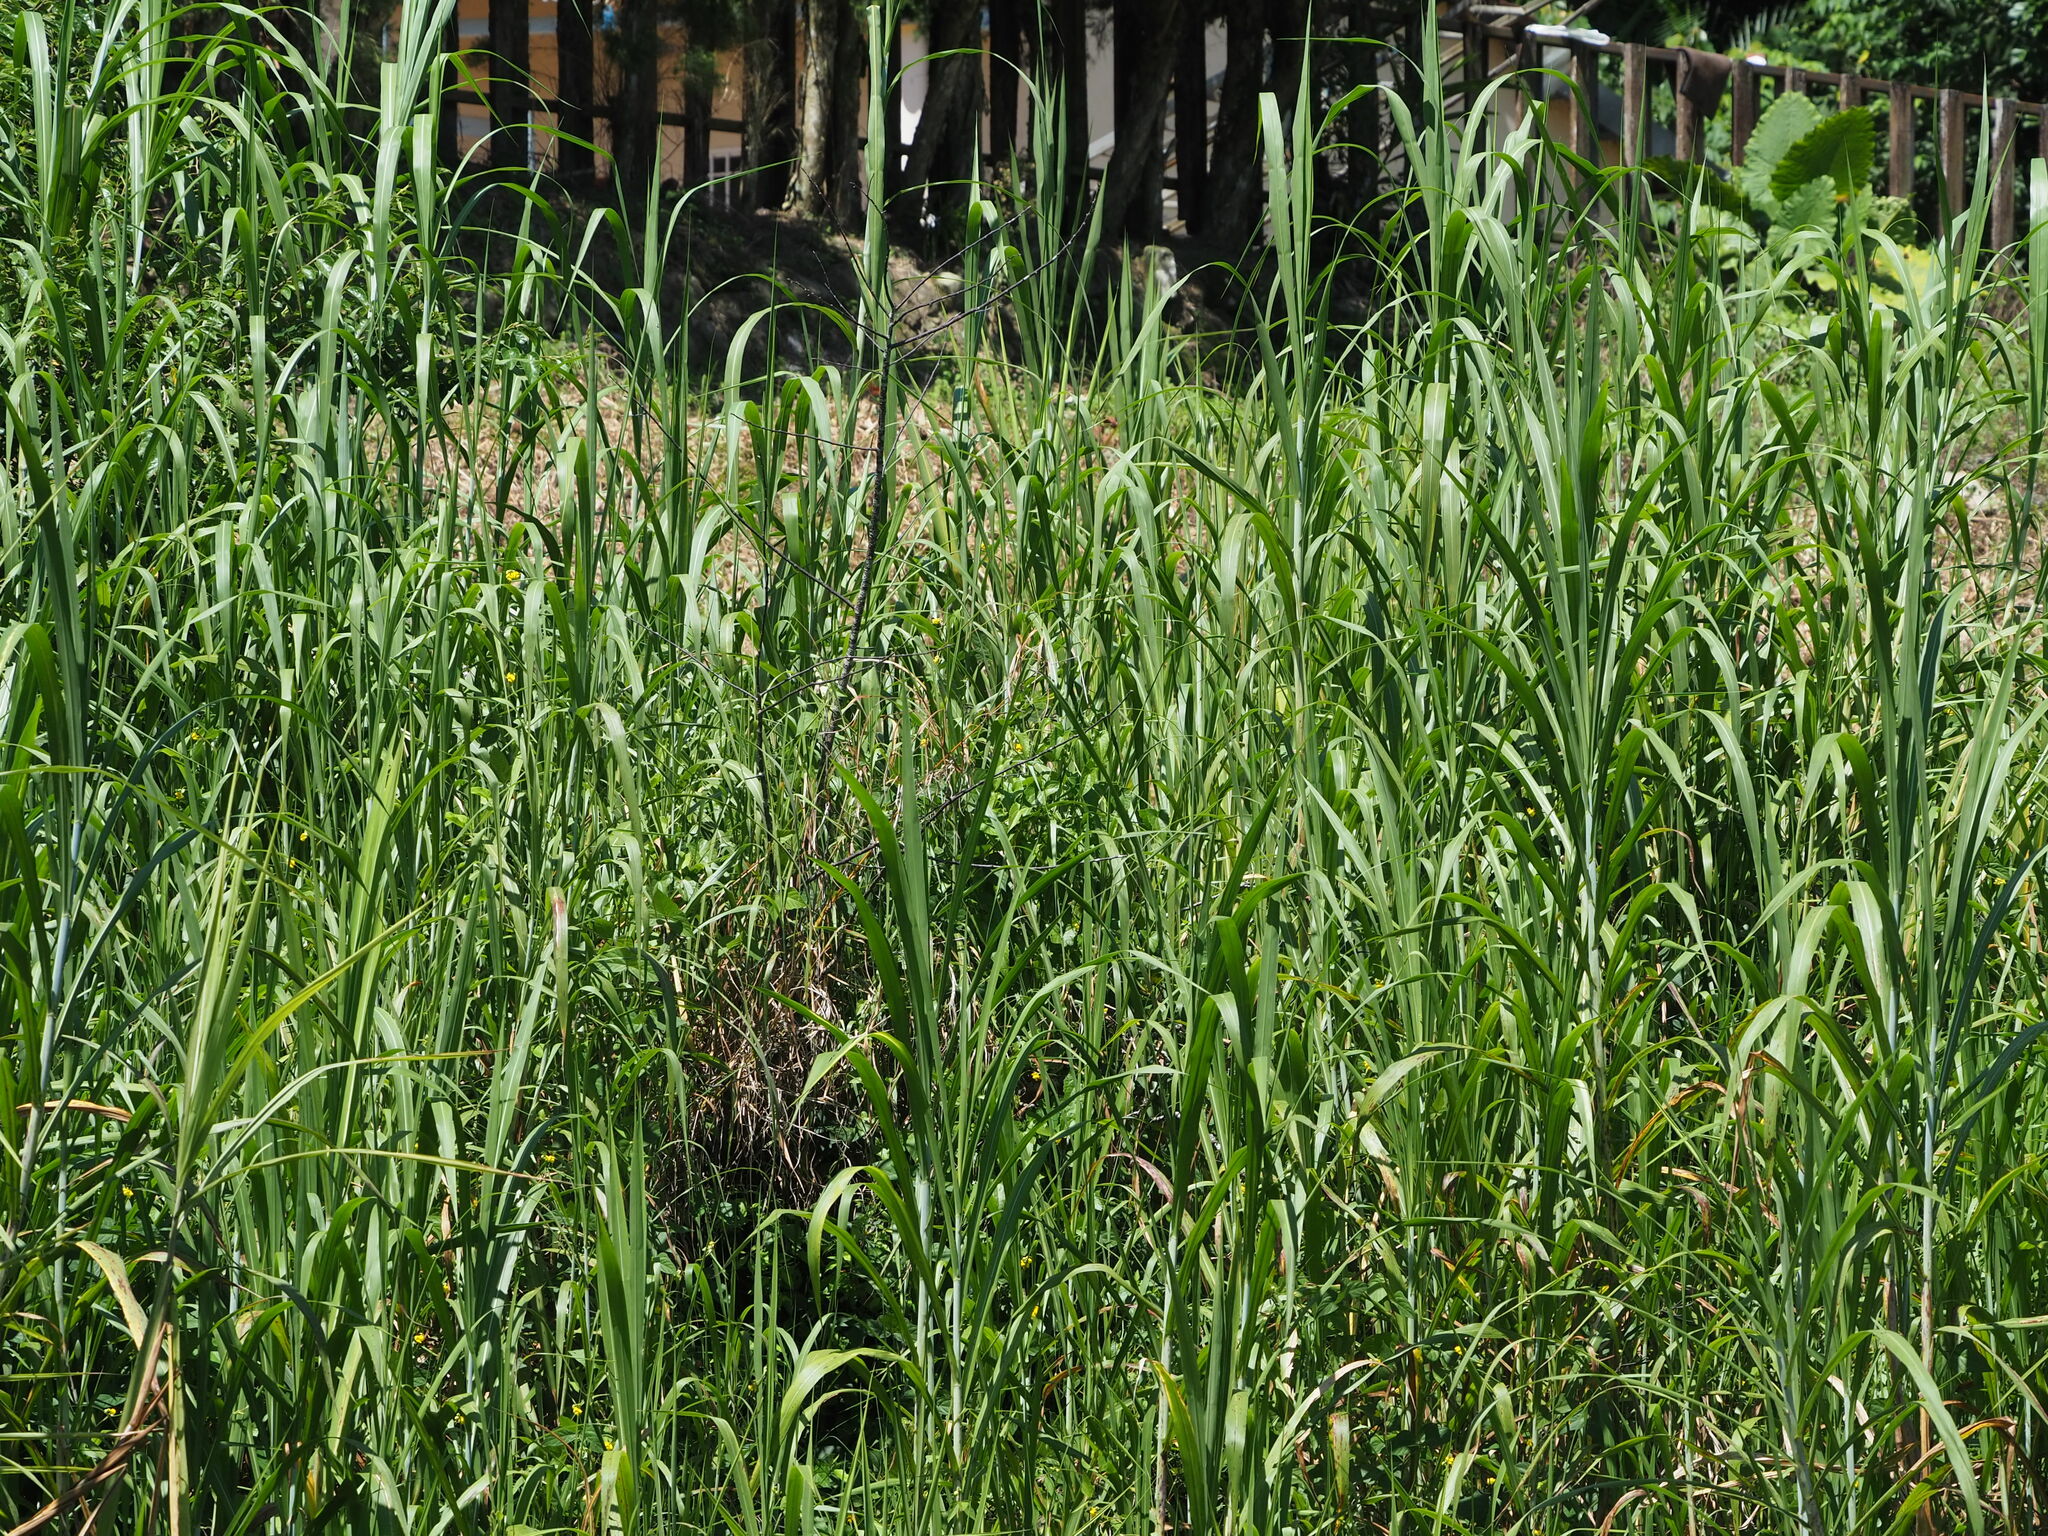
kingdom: Plantae
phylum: Tracheophyta
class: Liliopsida
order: Poales
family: Poaceae
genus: Cenchrus
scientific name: Cenchrus purpureus
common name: Elephant grass
